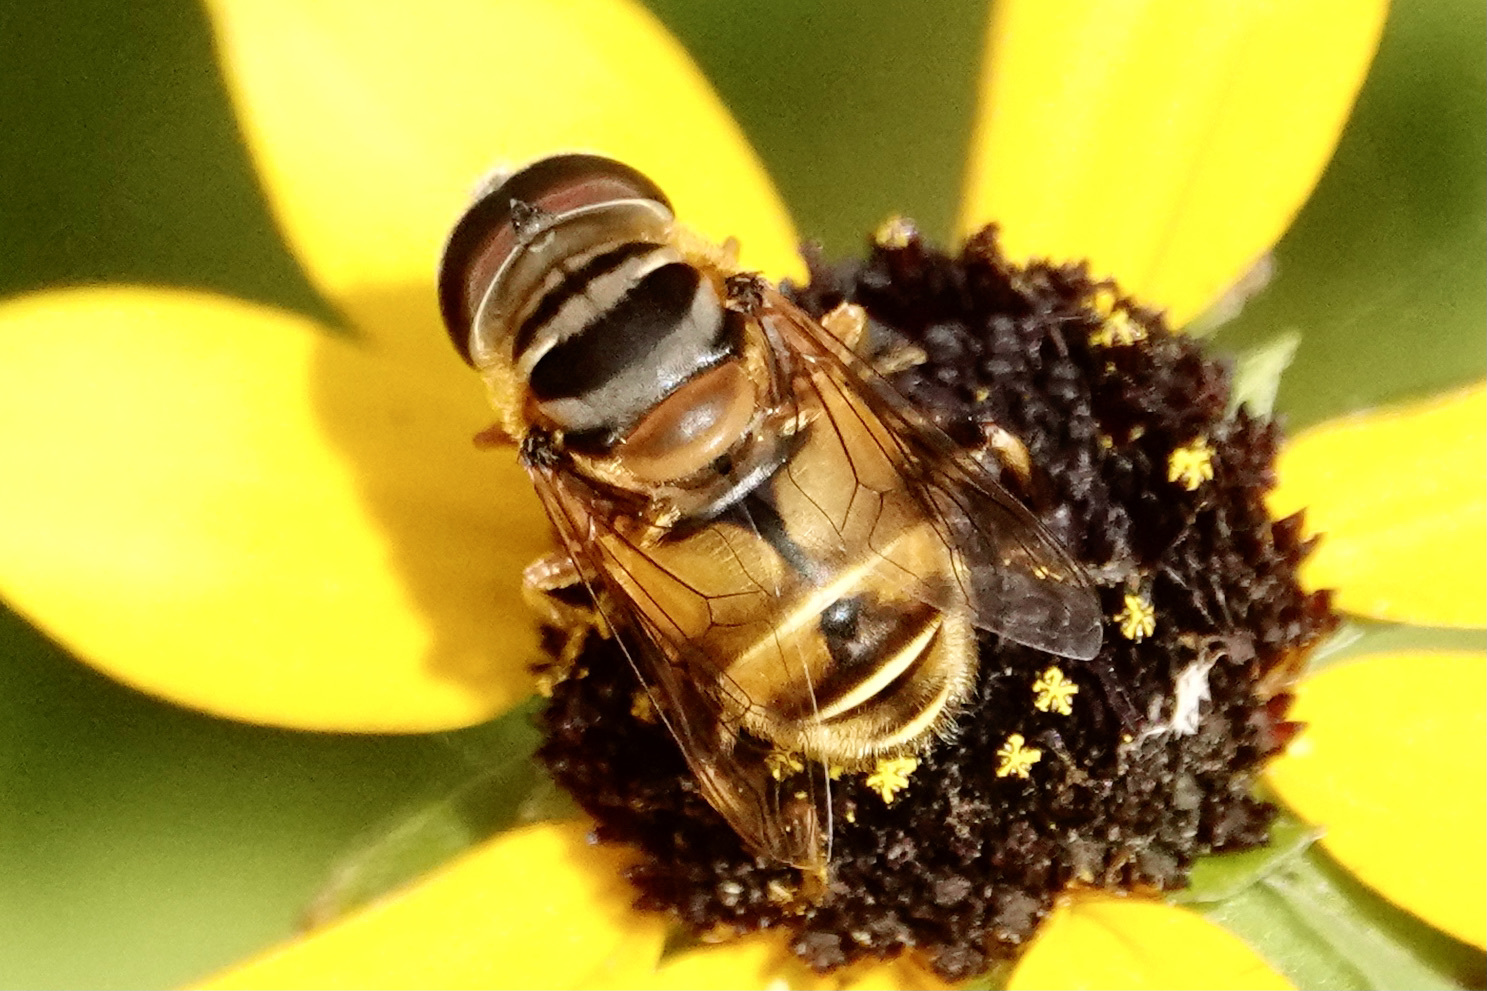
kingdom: Animalia
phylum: Arthropoda
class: Insecta
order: Diptera
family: Syrphidae
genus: Palpada
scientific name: Palpada vinetorum
